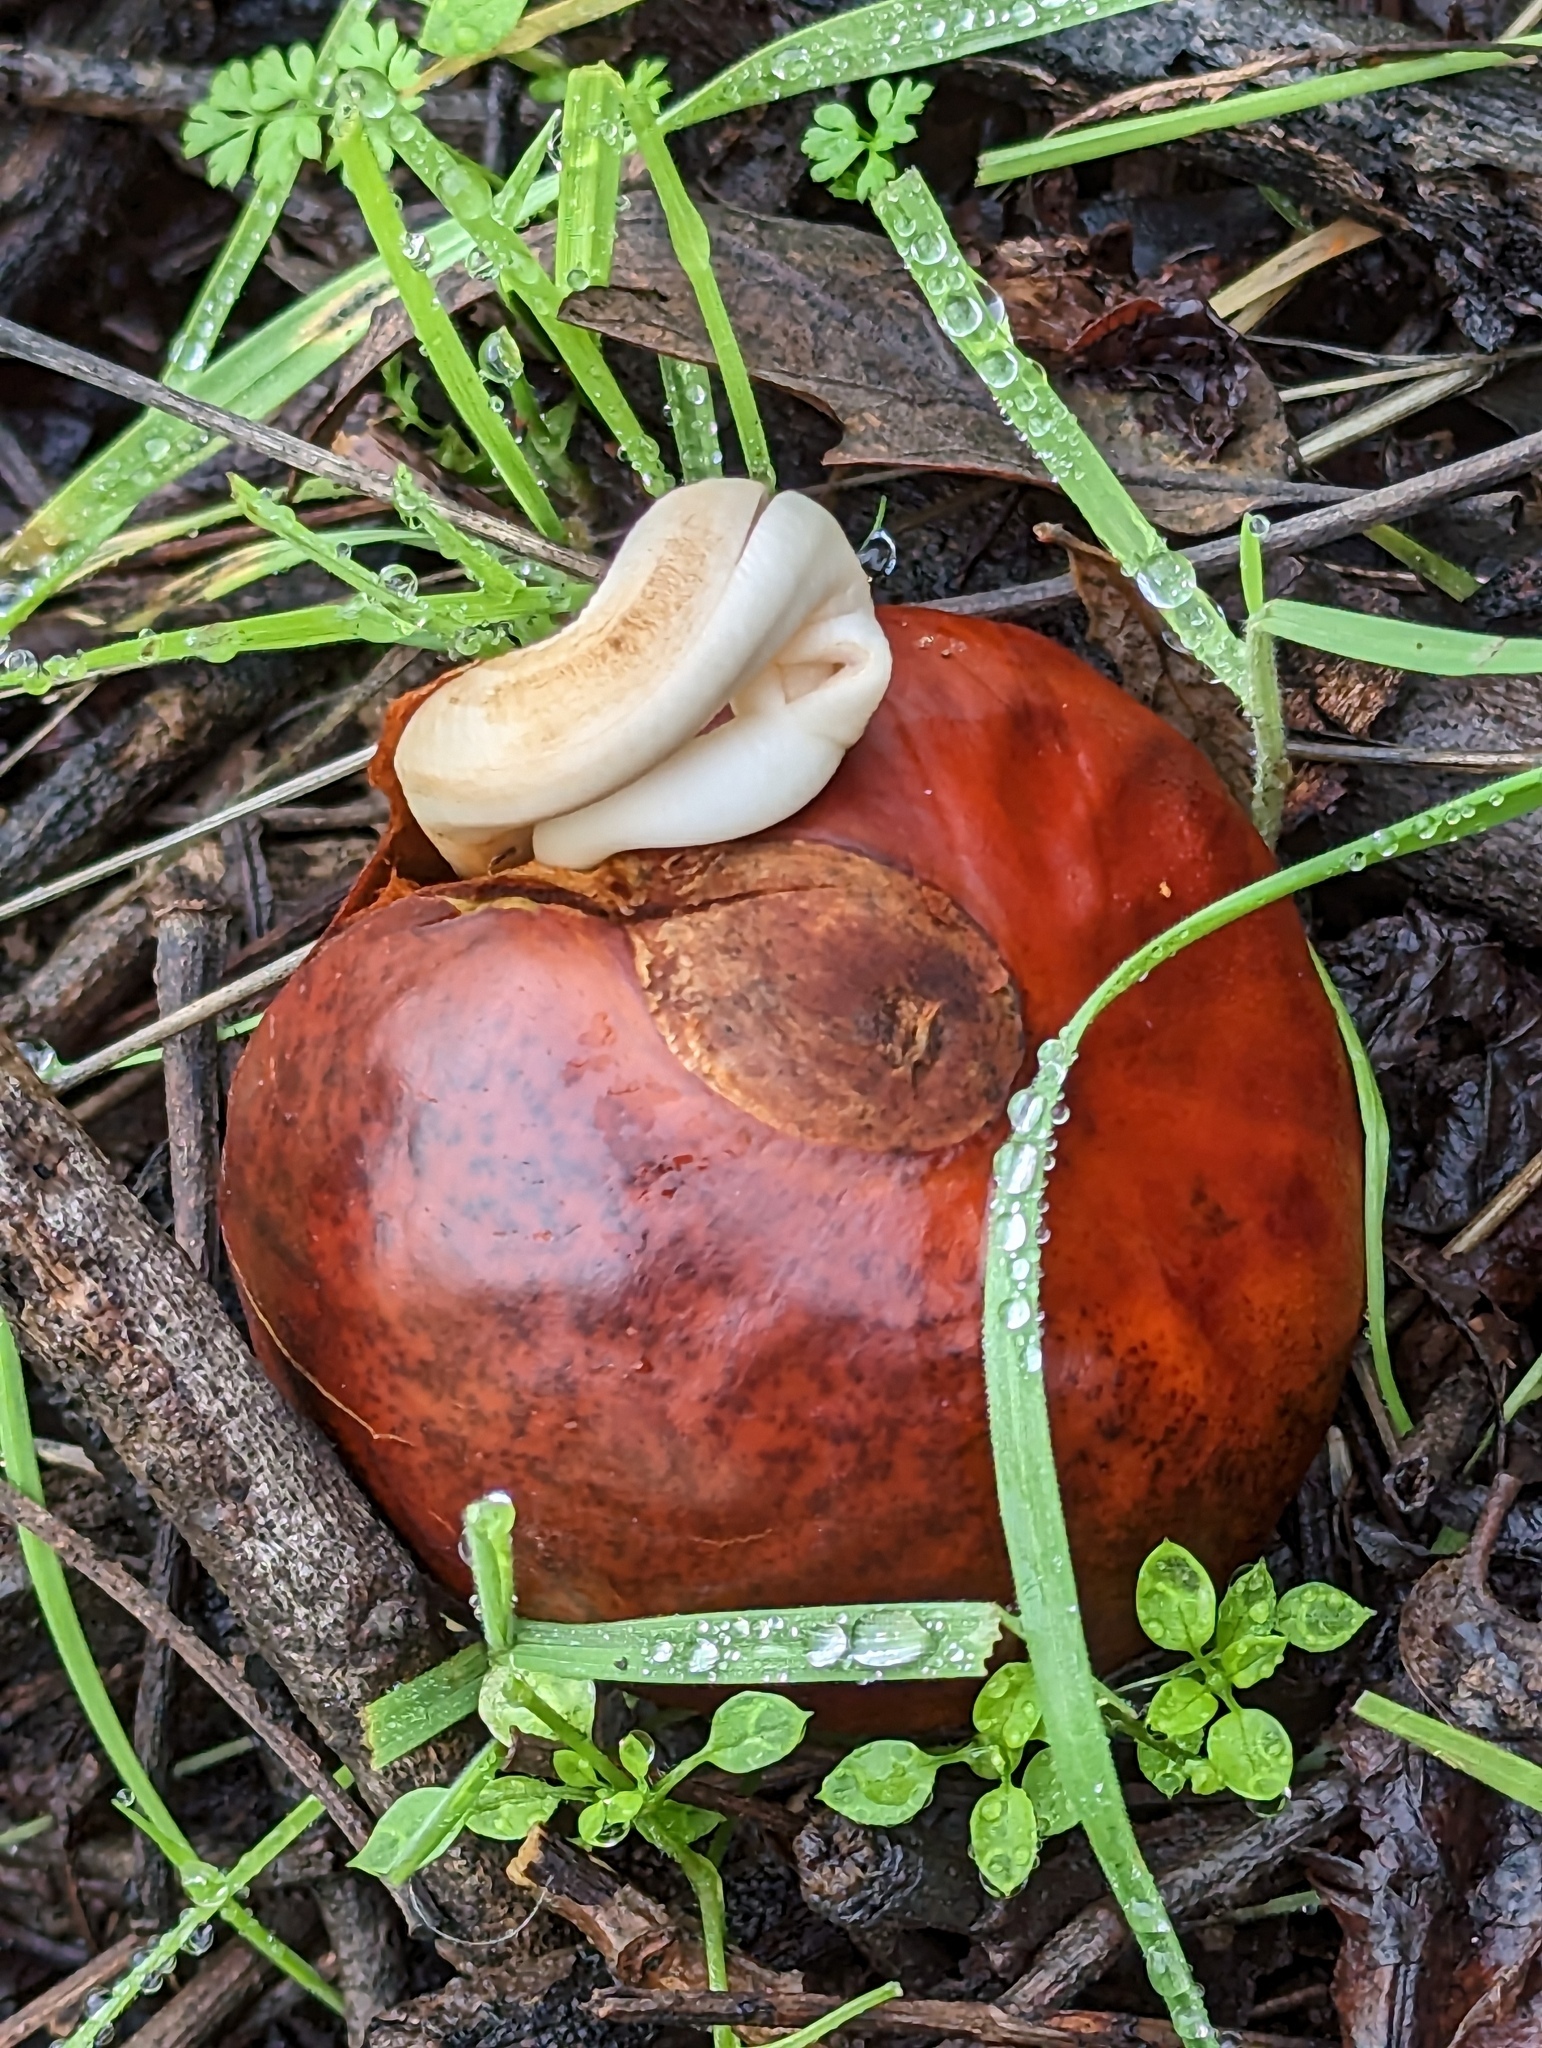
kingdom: Plantae
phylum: Tracheophyta
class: Magnoliopsida
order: Sapindales
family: Sapindaceae
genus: Aesculus
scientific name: Aesculus californica
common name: California buckeye
